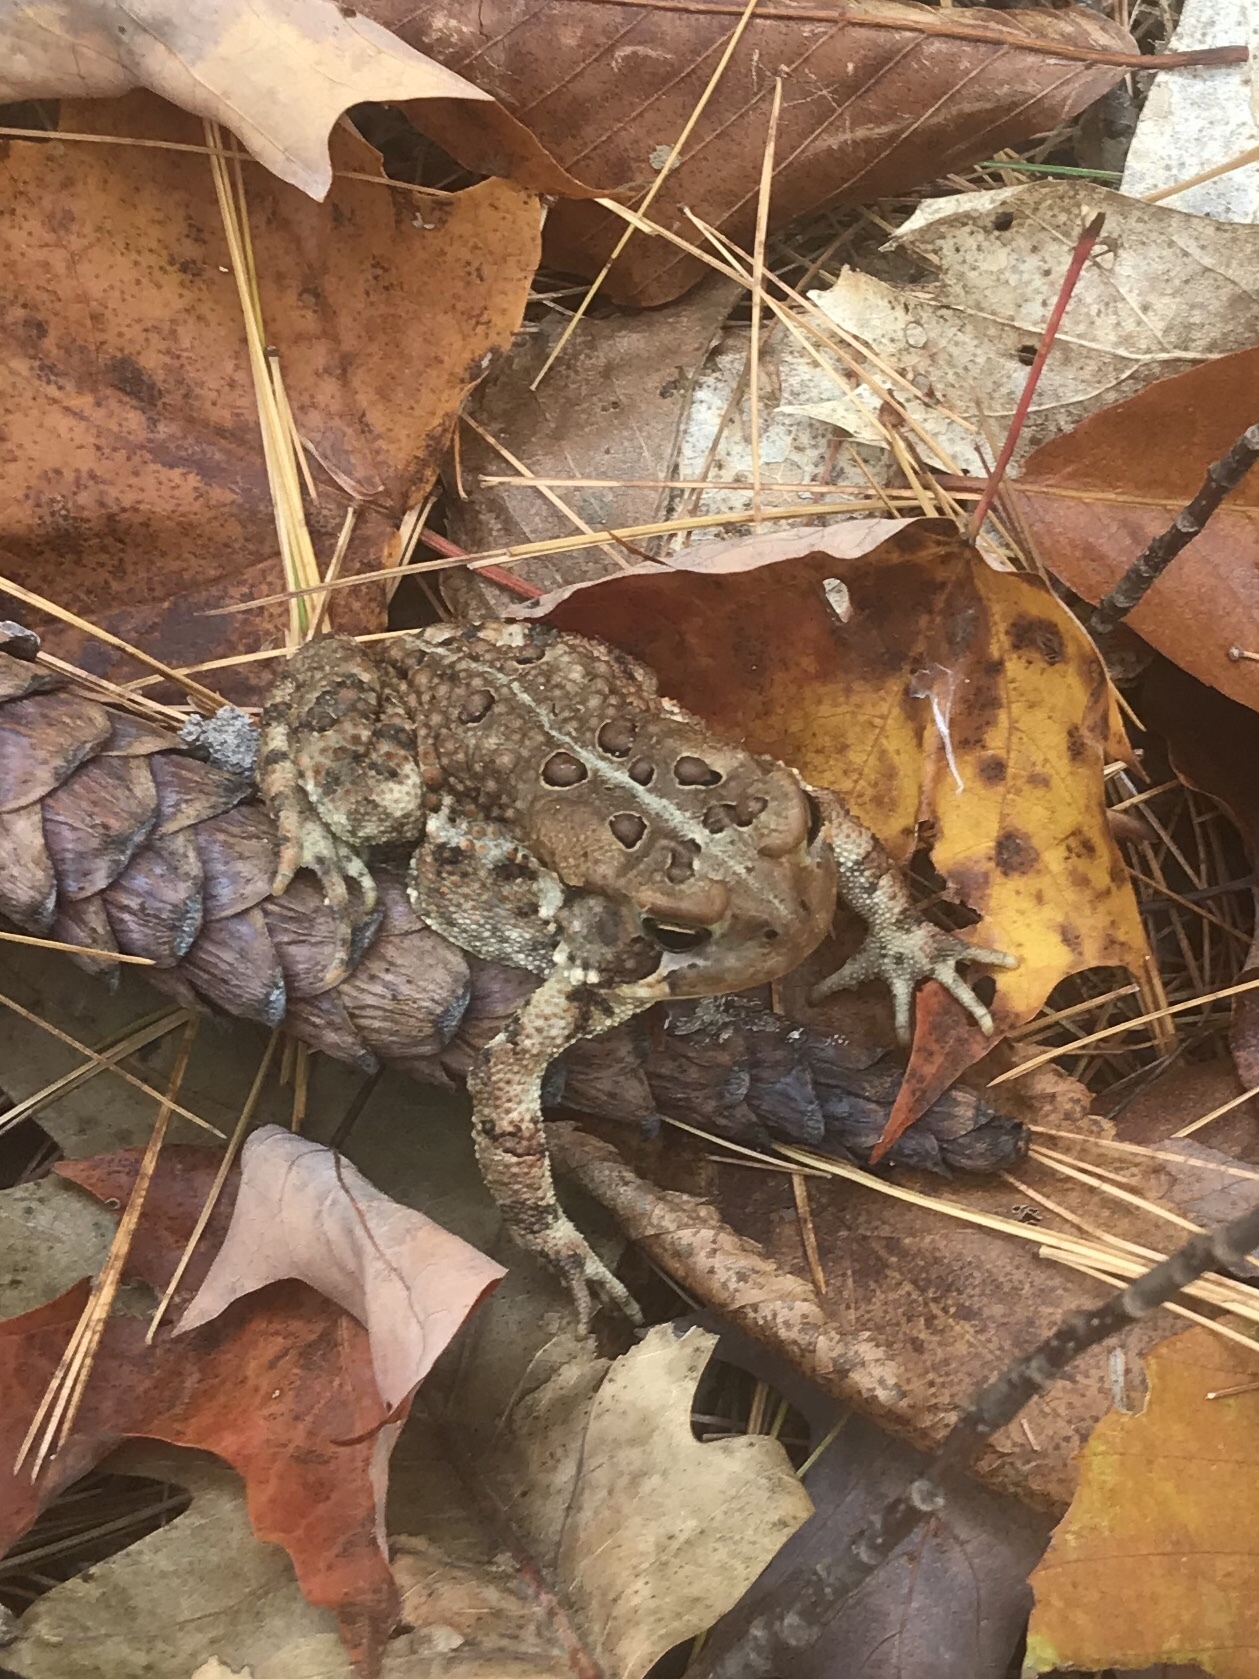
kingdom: Animalia
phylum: Chordata
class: Amphibia
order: Anura
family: Bufonidae
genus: Anaxyrus
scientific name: Anaxyrus americanus
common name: American toad
